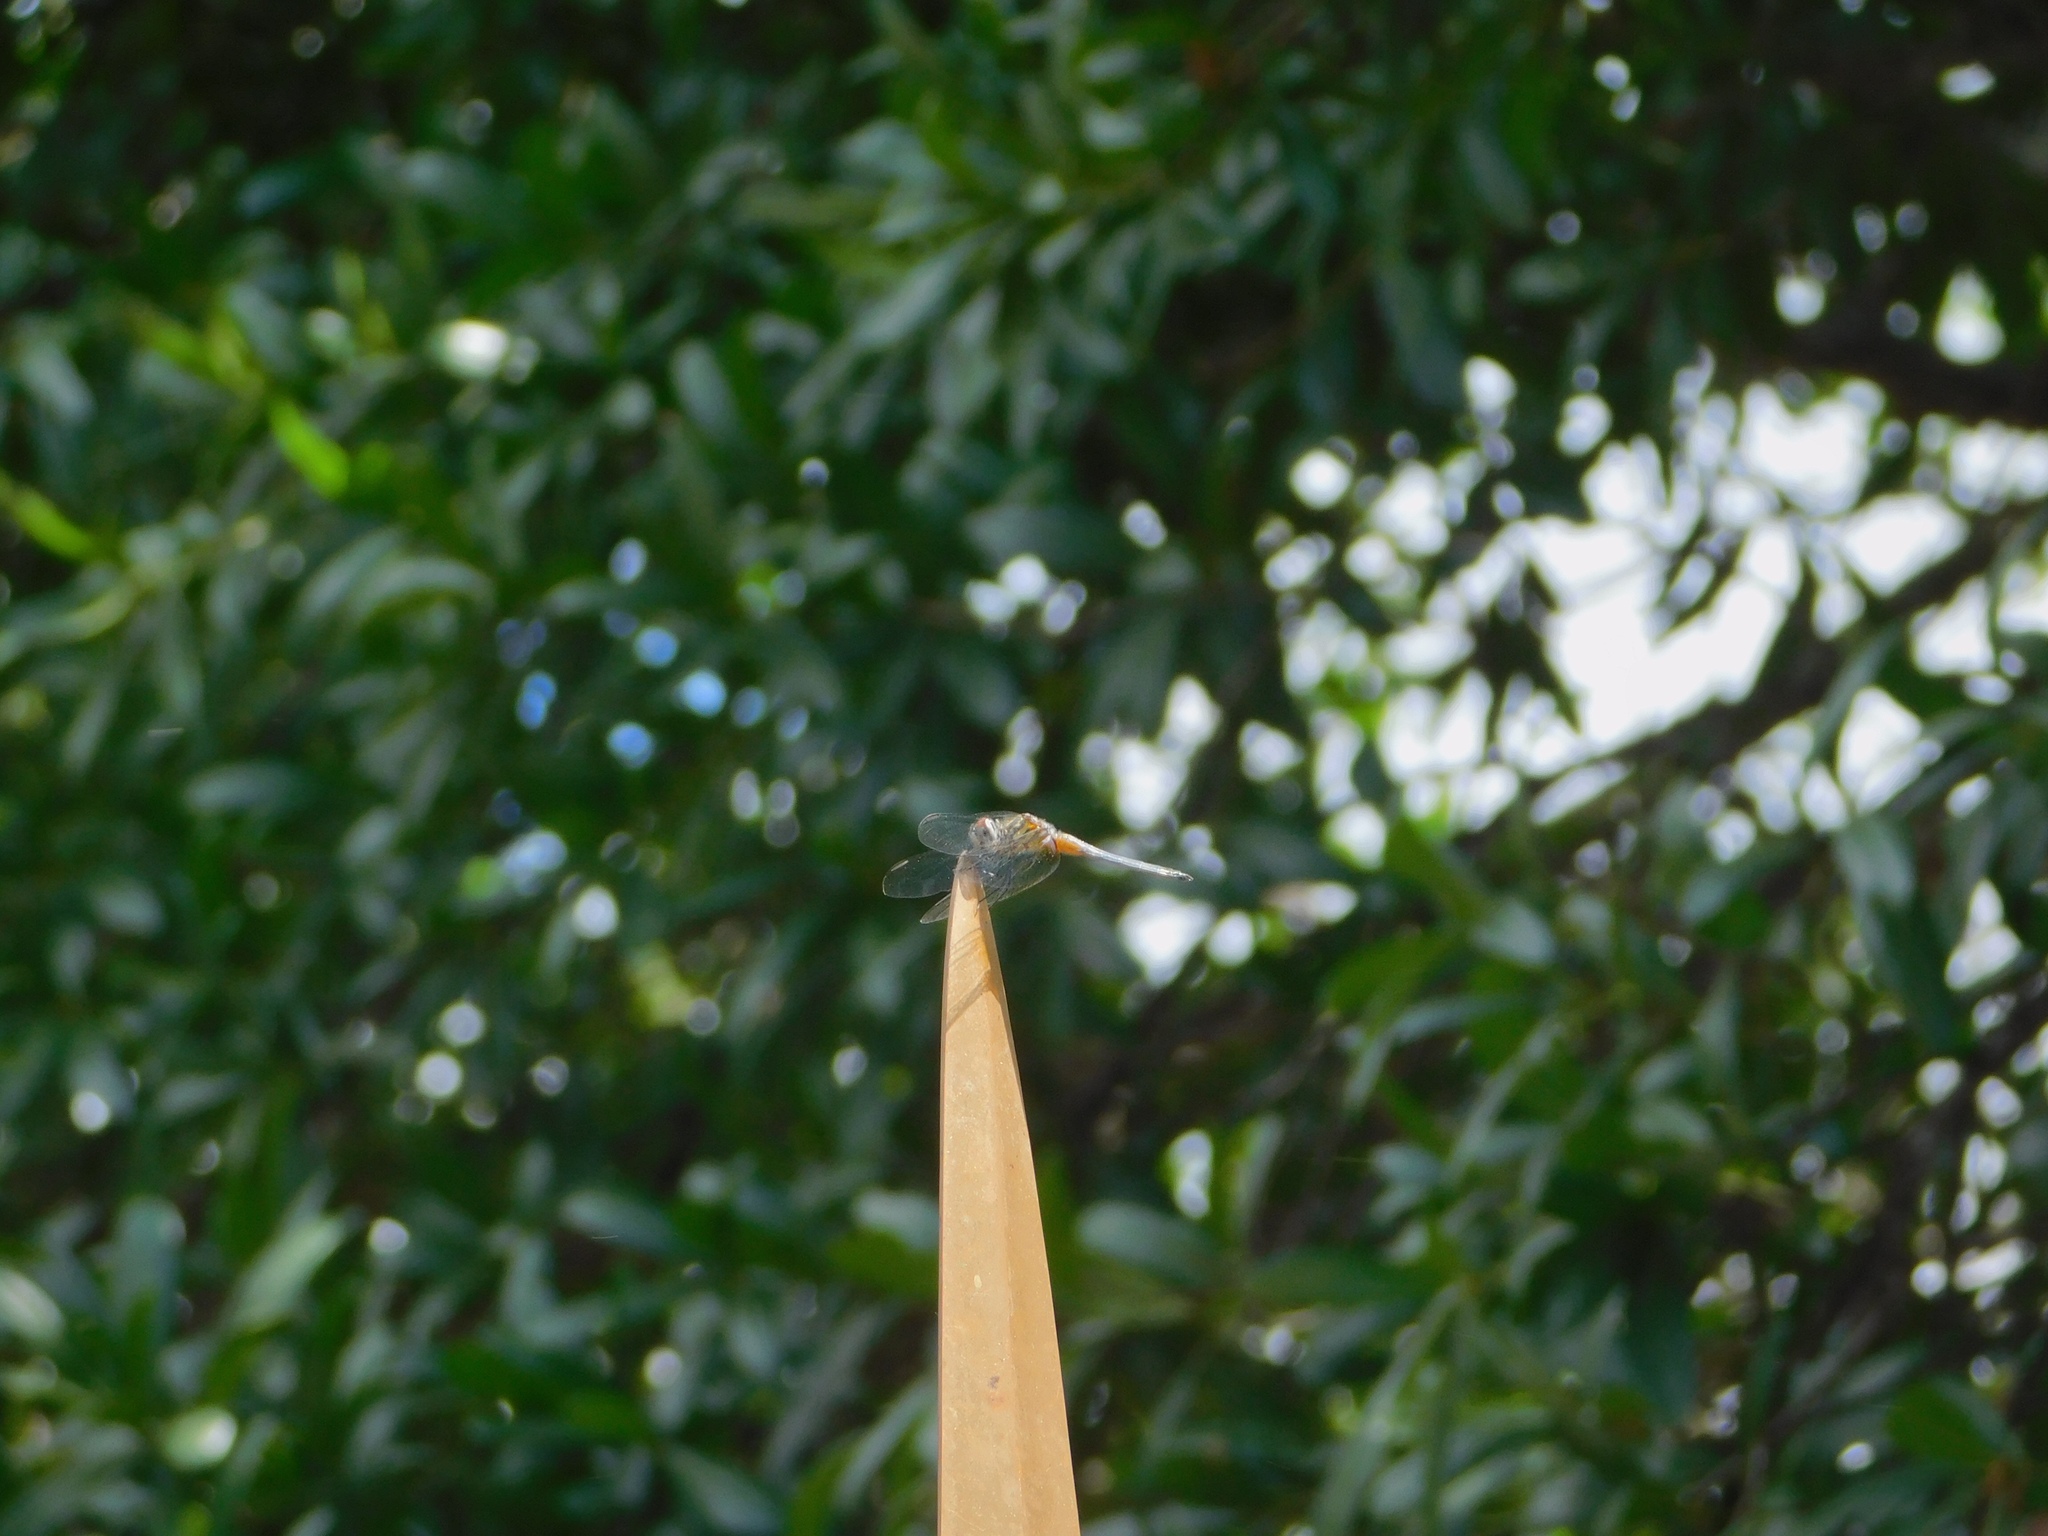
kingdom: Animalia
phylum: Arthropoda
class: Insecta
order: Odonata
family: Libellulidae
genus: Pachydiplax
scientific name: Pachydiplax longipennis
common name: Blue dasher
